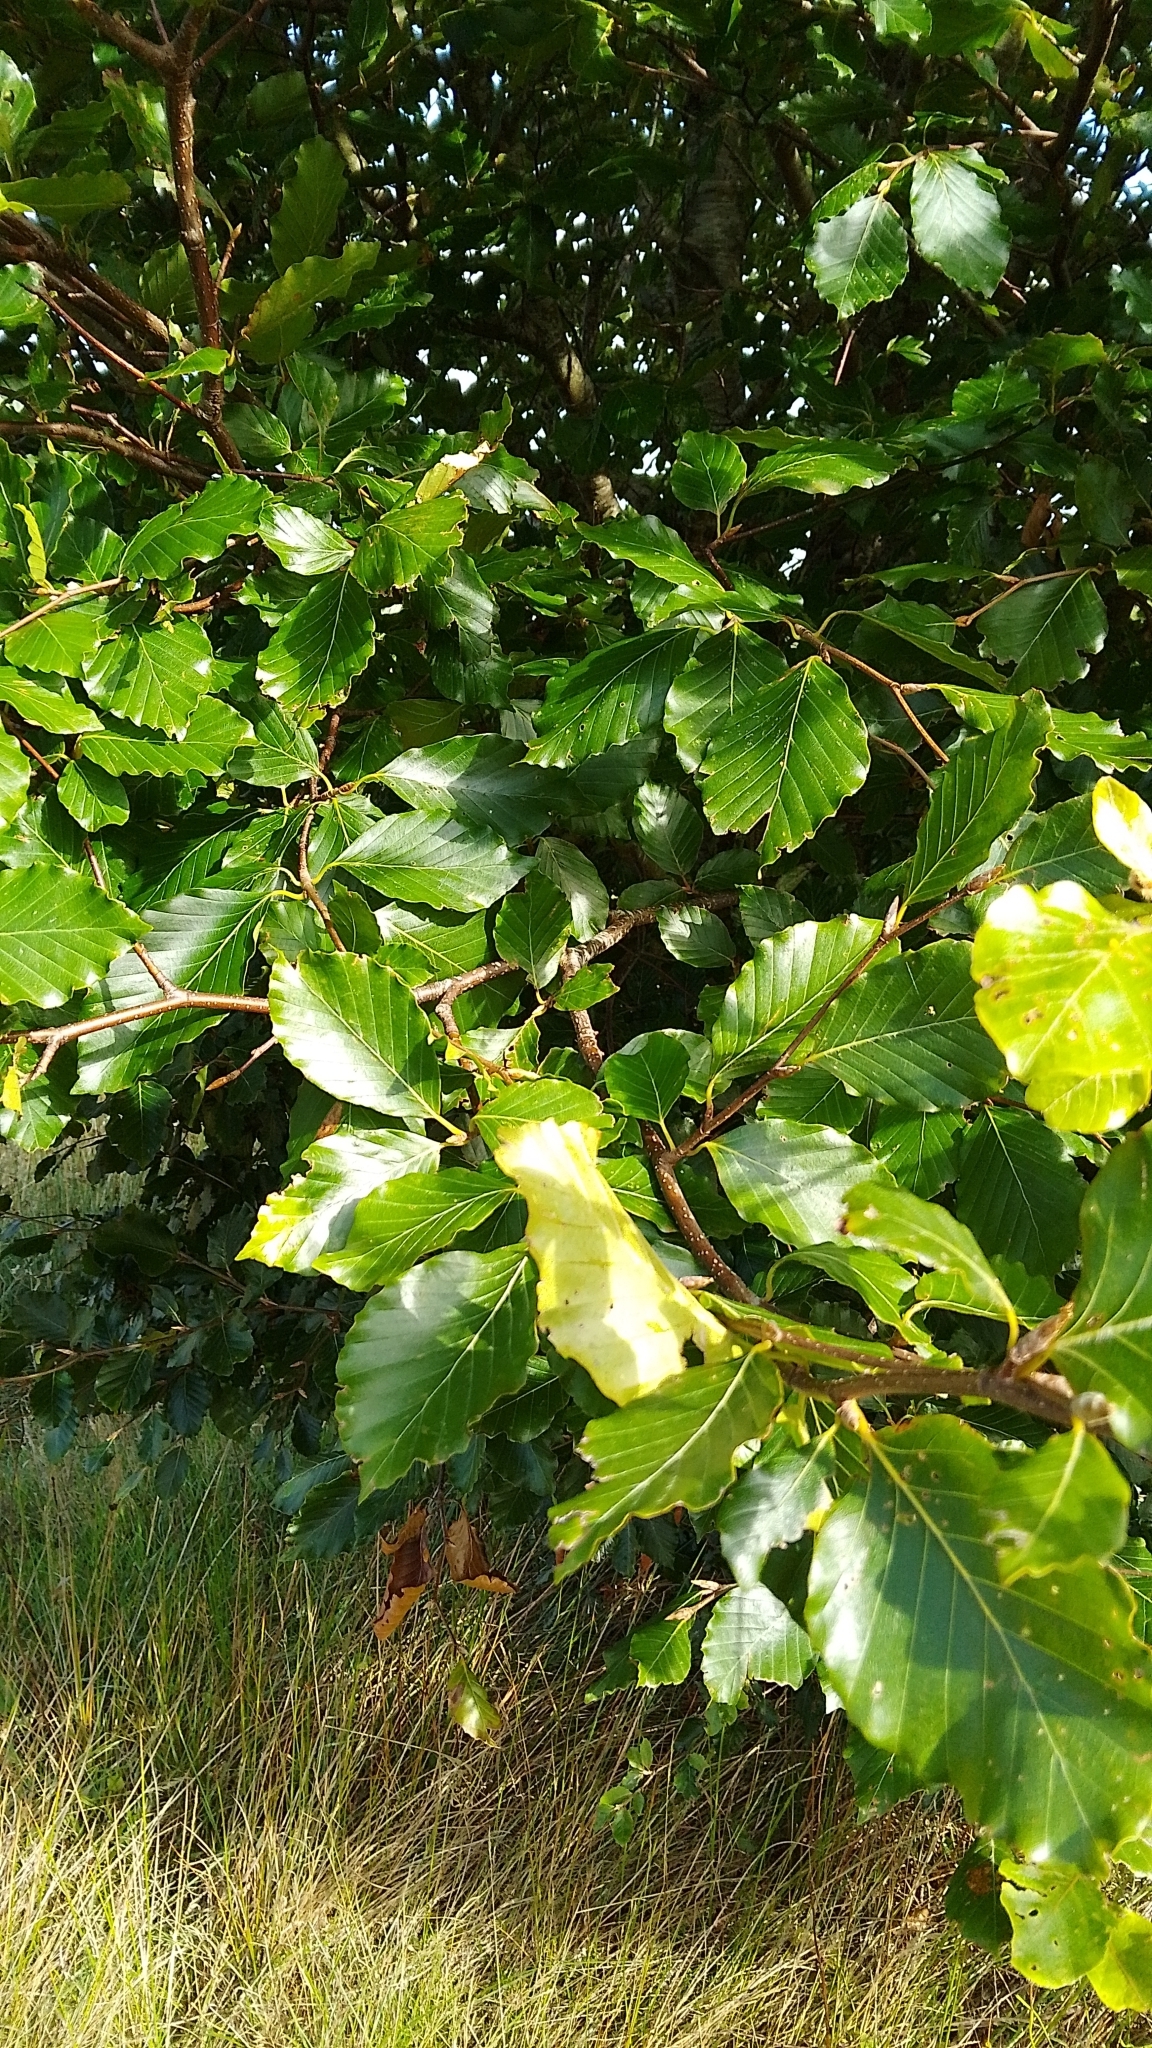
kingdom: Plantae
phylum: Tracheophyta
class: Magnoliopsida
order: Fagales
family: Fagaceae
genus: Fagus
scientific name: Fagus sylvatica
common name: Beech
